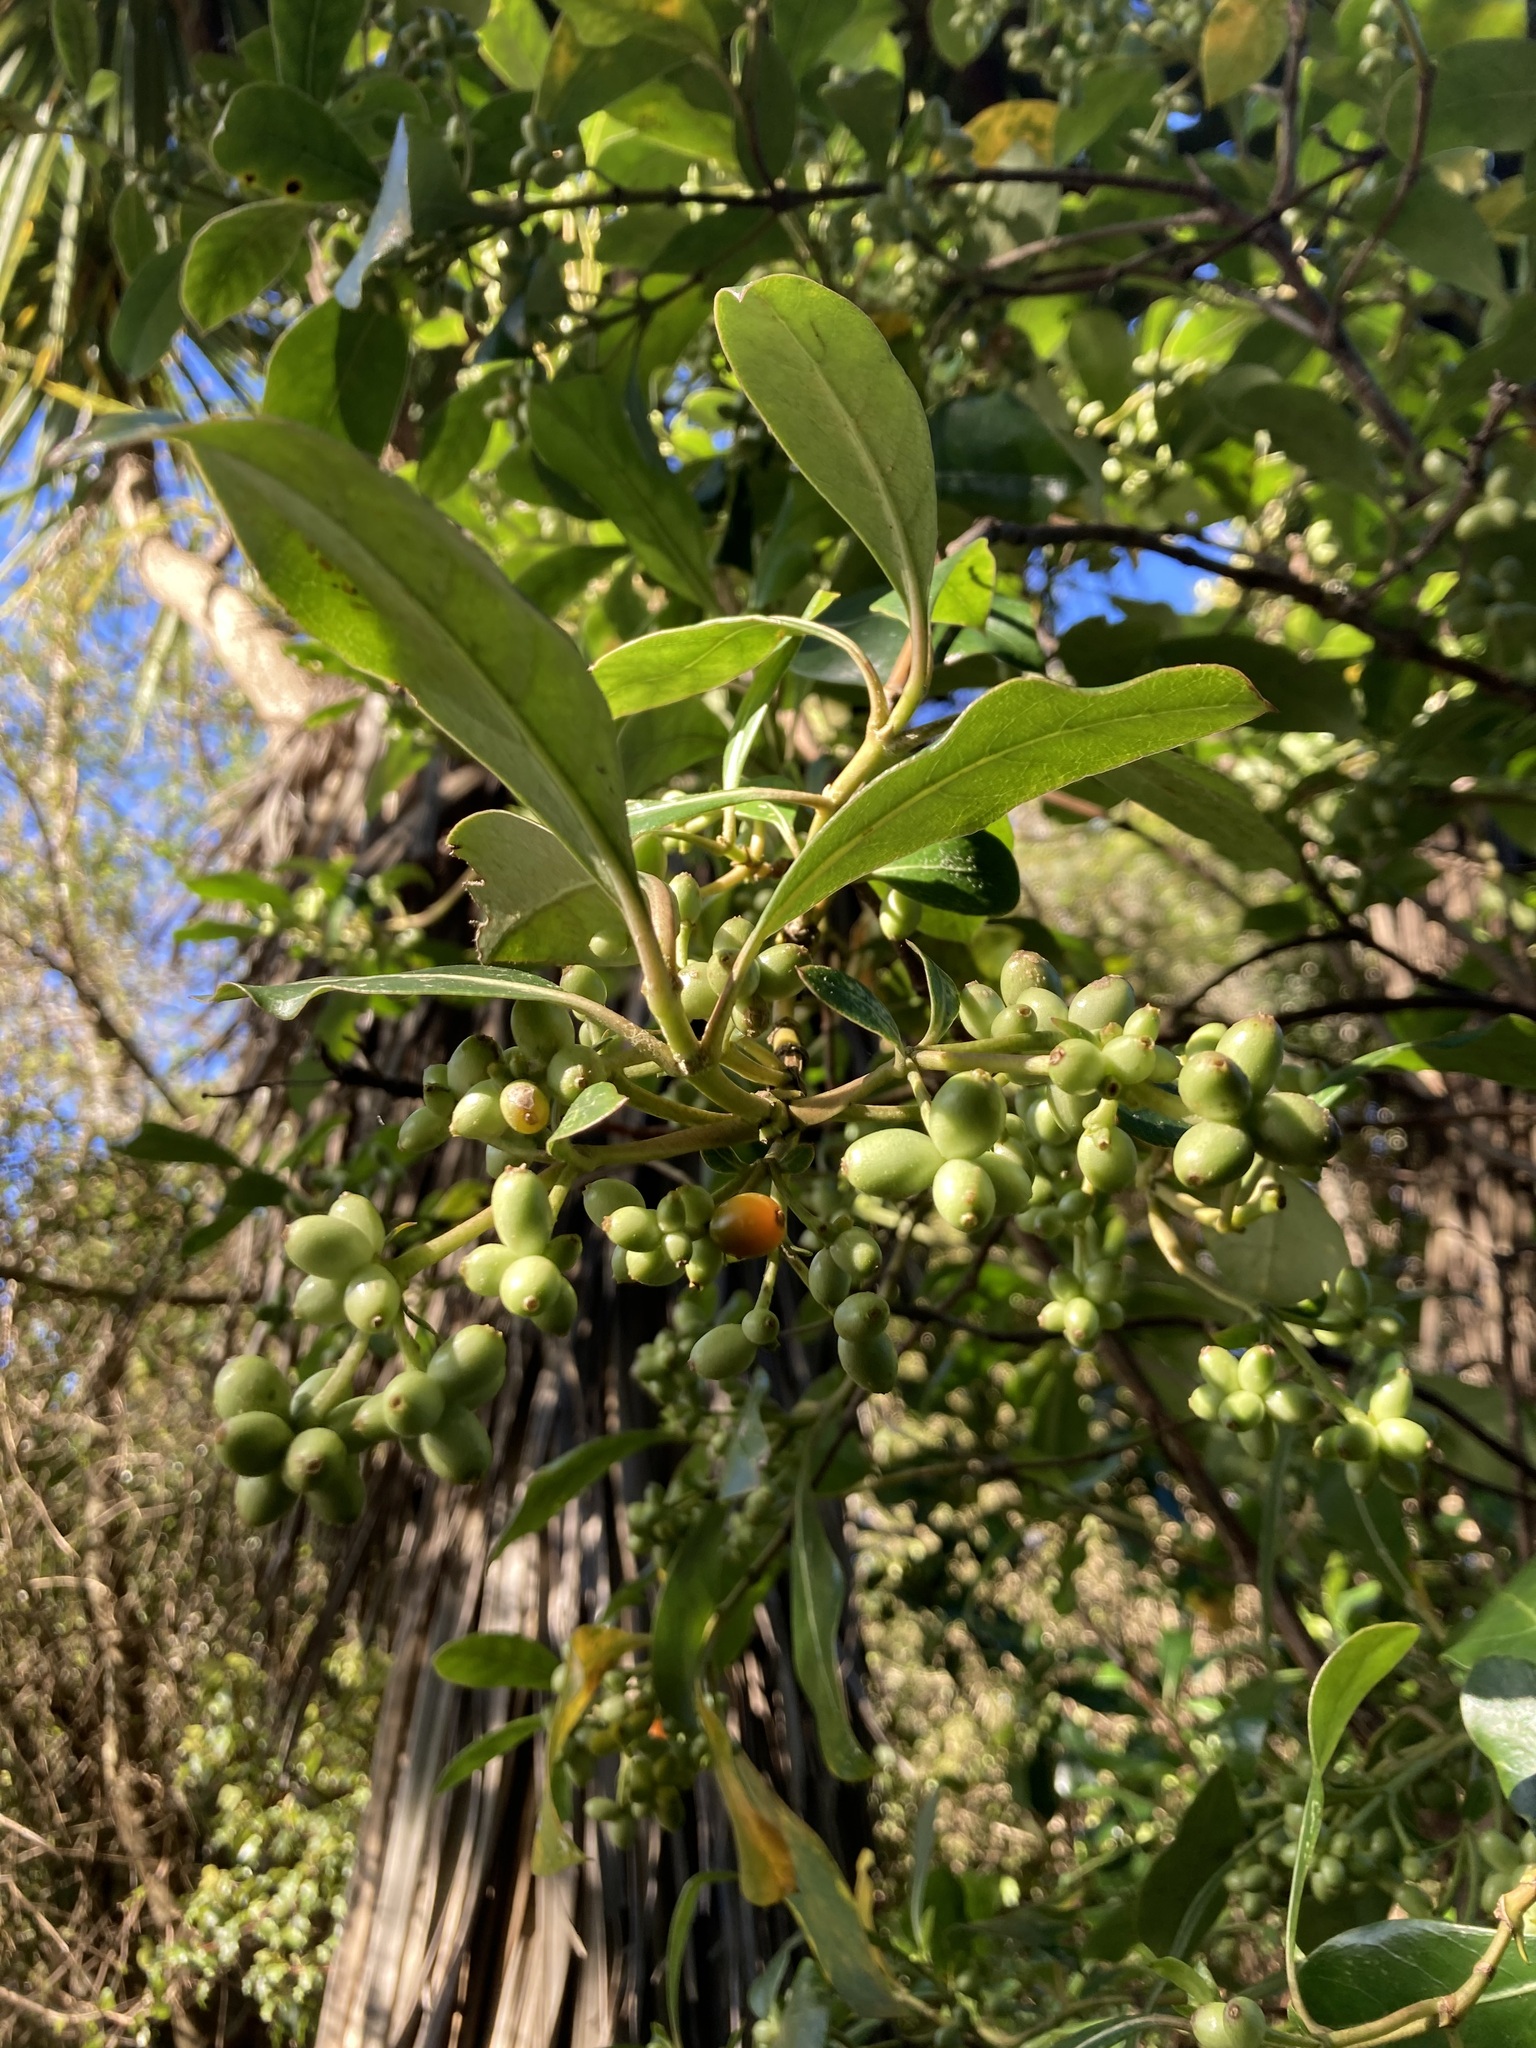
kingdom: Plantae
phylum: Tracheophyta
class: Magnoliopsida
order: Gentianales
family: Rubiaceae
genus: Coprosma
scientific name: Coprosma lucida
